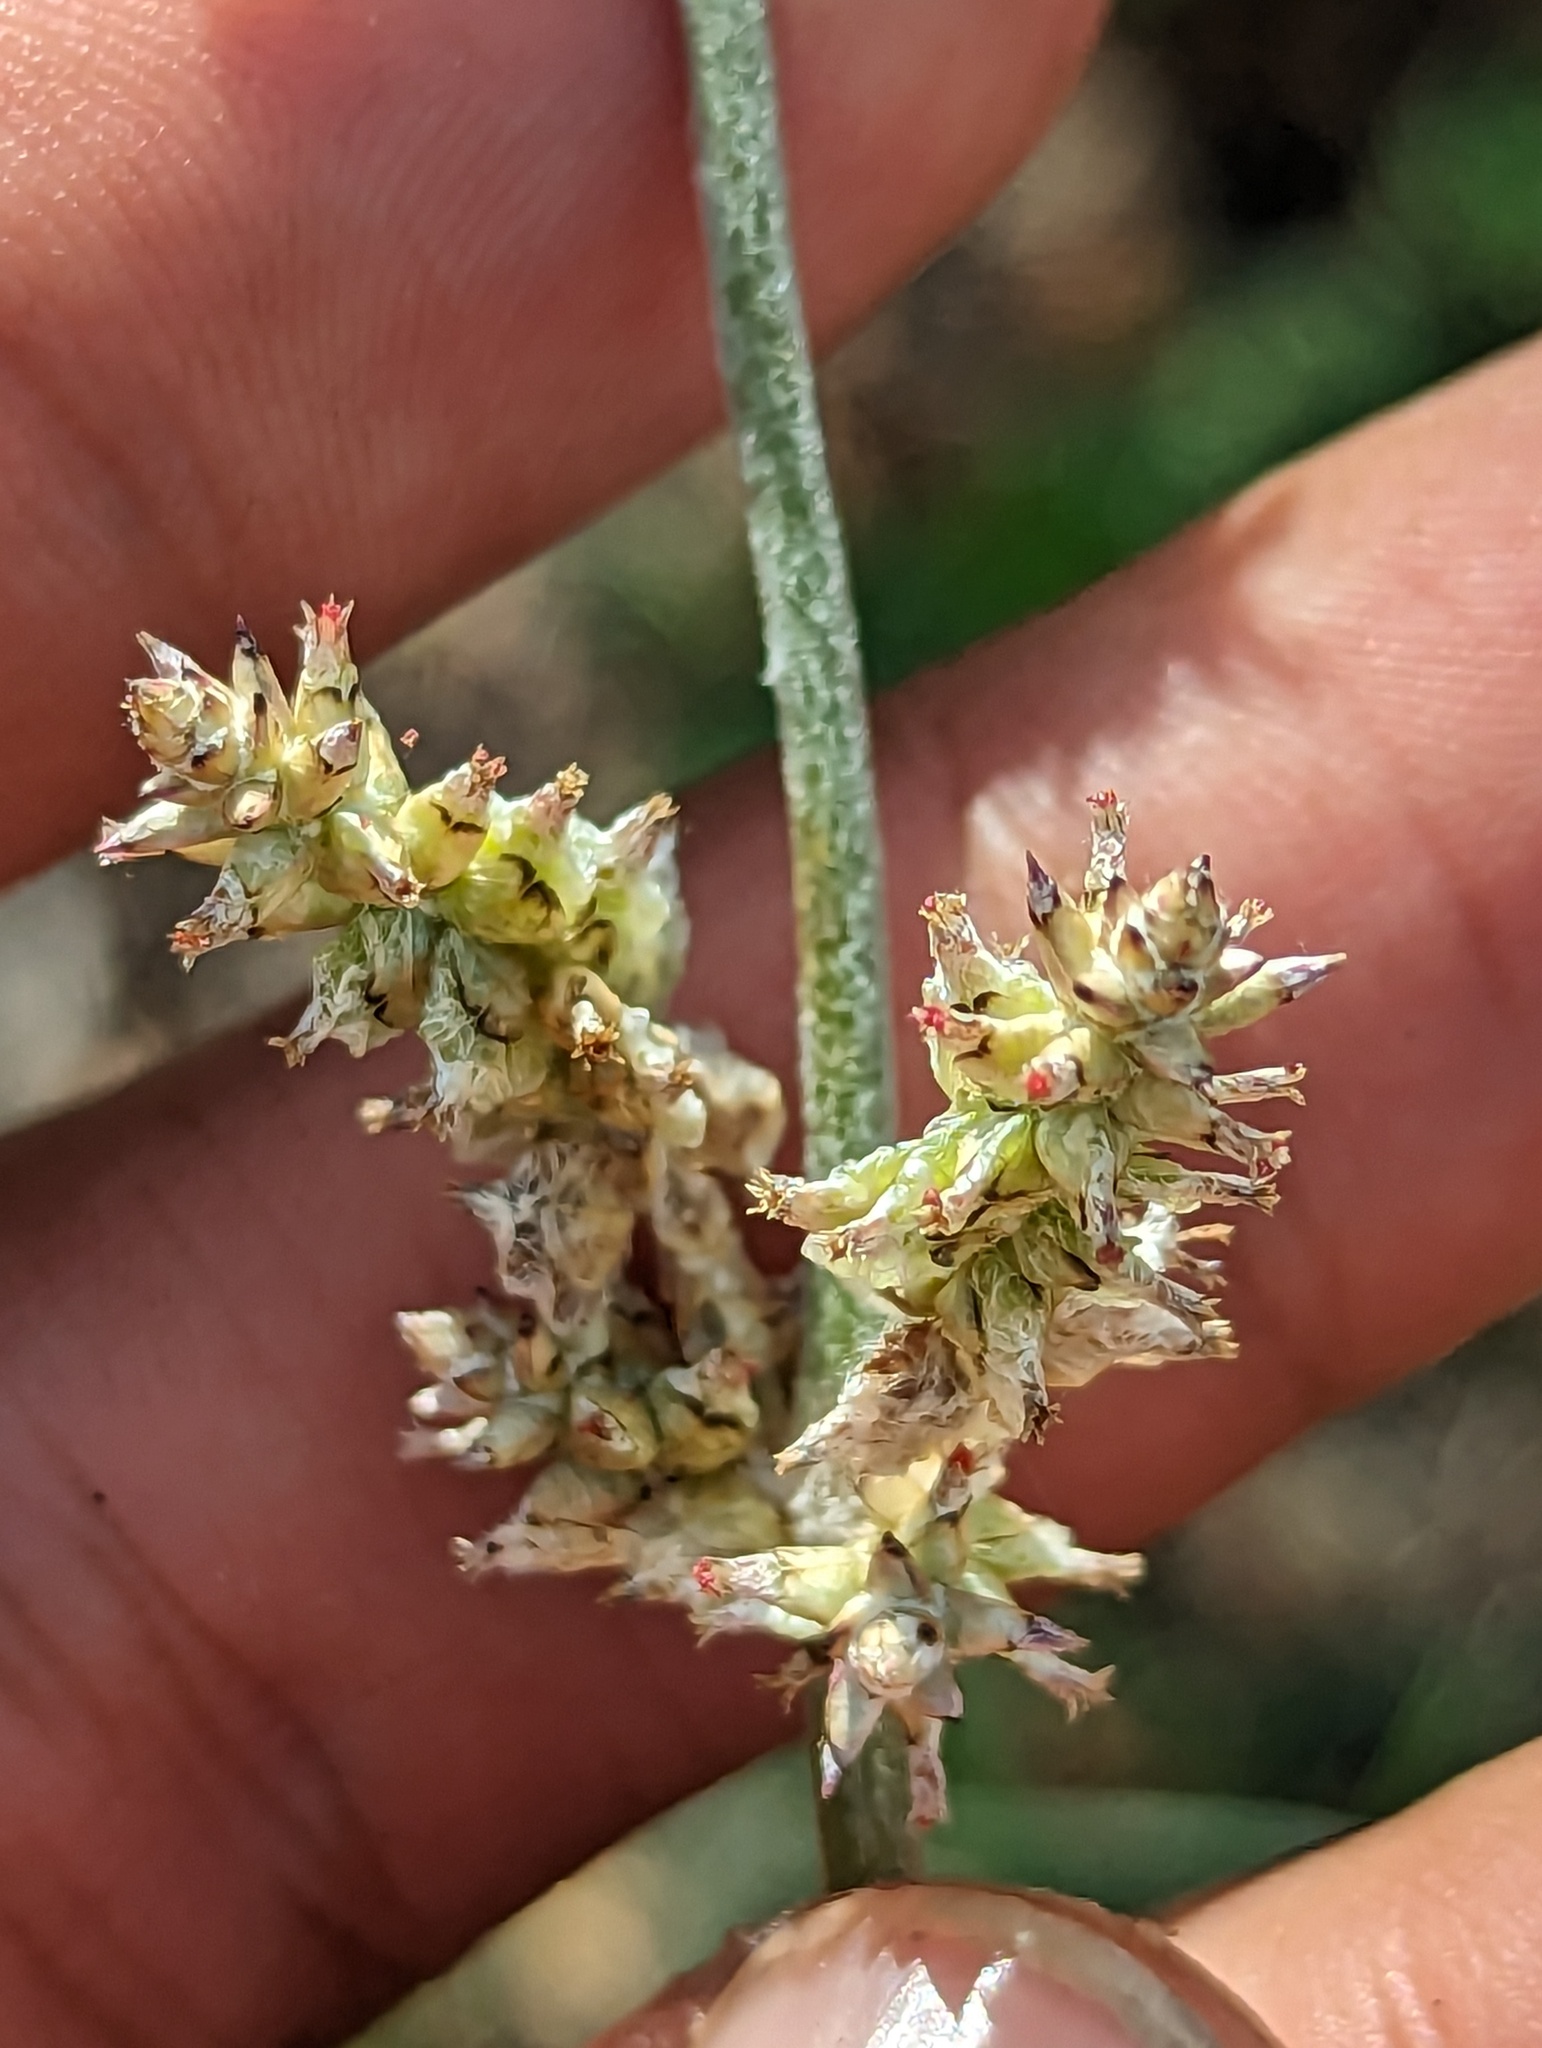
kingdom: Plantae
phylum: Tracheophyta
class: Magnoliopsida
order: Caryophyllales
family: Amaranthaceae
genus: Froelichia
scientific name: Froelichia xantusii
